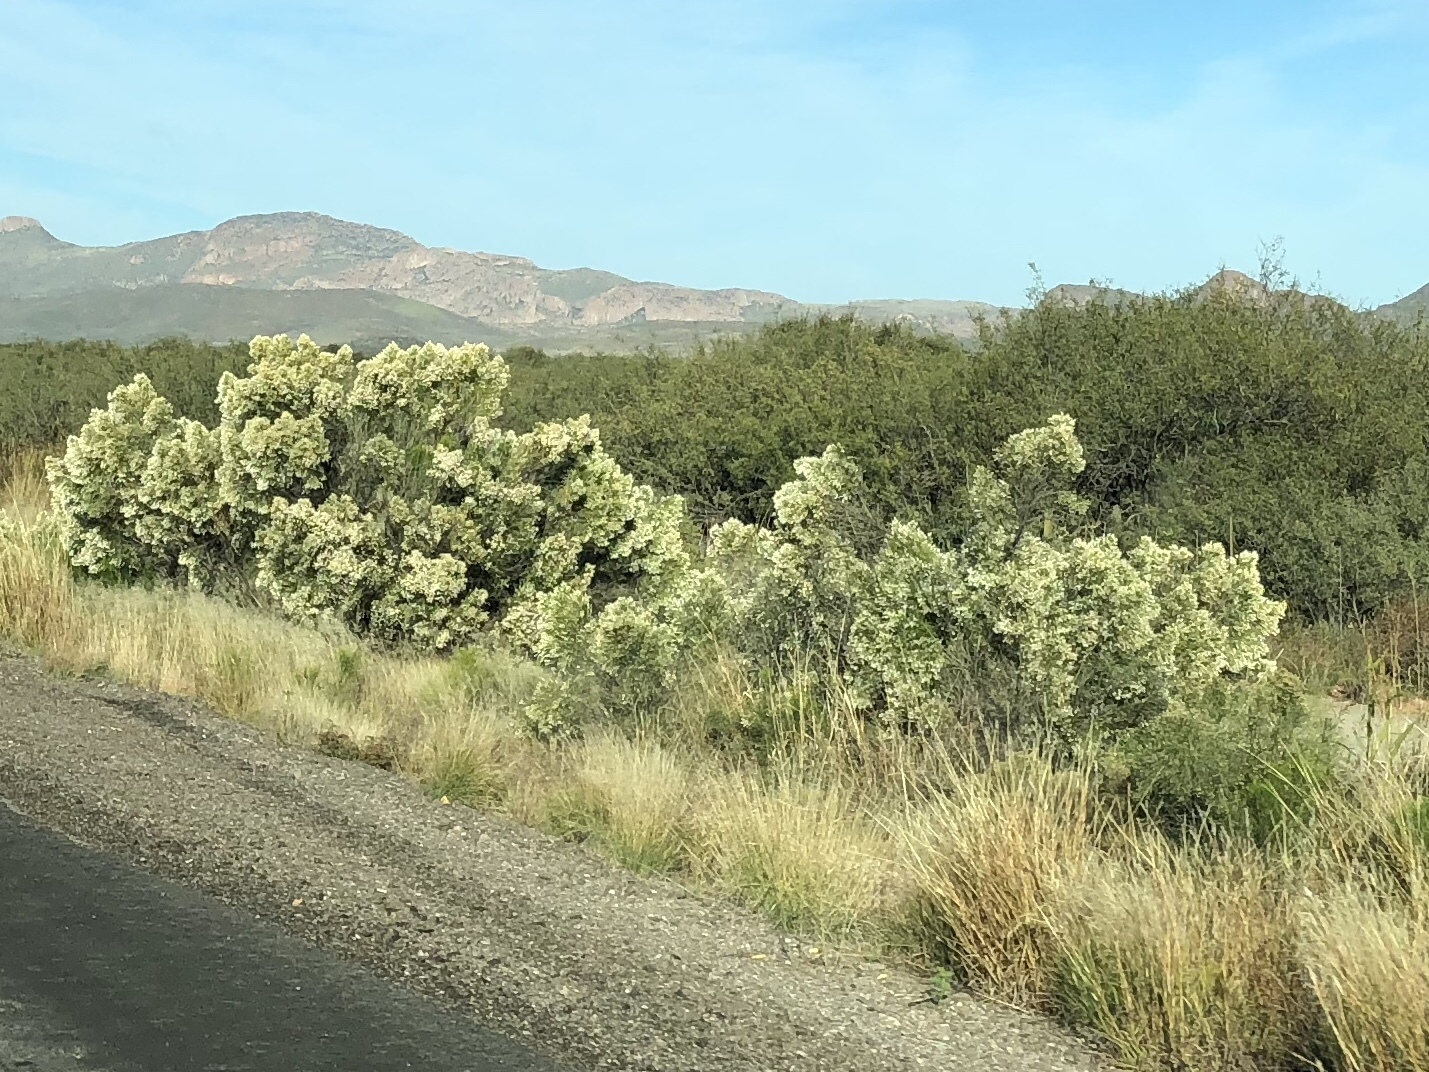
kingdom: Plantae
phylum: Tracheophyta
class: Magnoliopsida
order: Asterales
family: Asteraceae
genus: Baccharis
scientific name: Baccharis sarothroides
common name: Desert-broom
